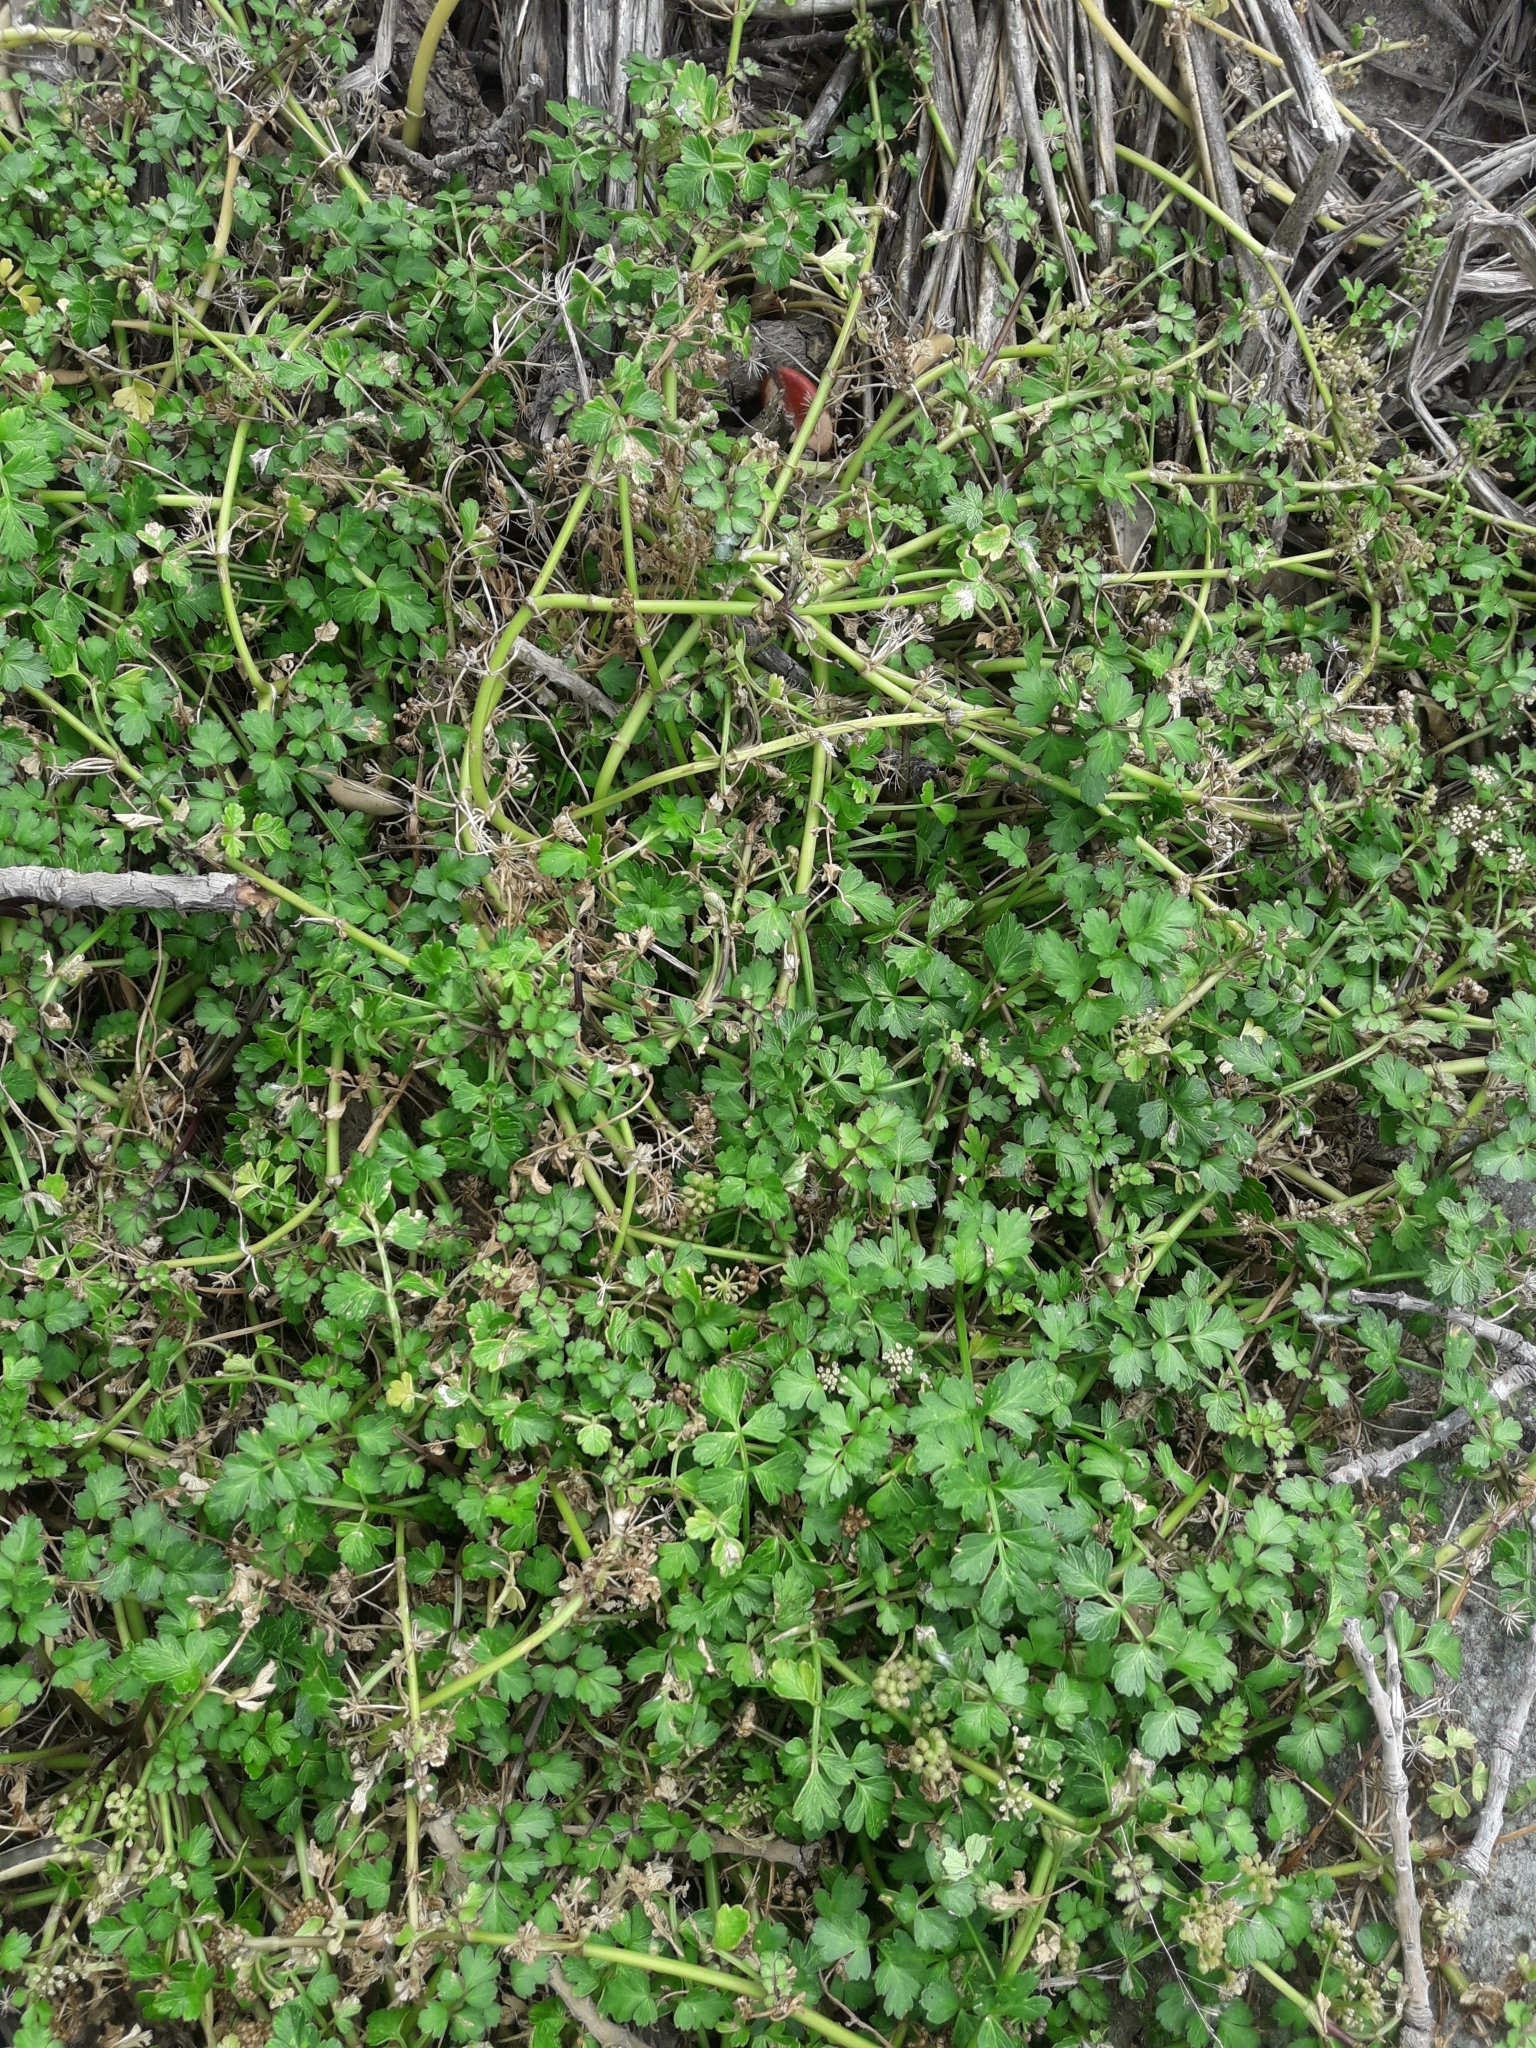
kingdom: Plantae
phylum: Tracheophyta
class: Magnoliopsida
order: Apiales
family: Apiaceae
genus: Apium
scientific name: Apium prostratum
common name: Prostrate marshwort
